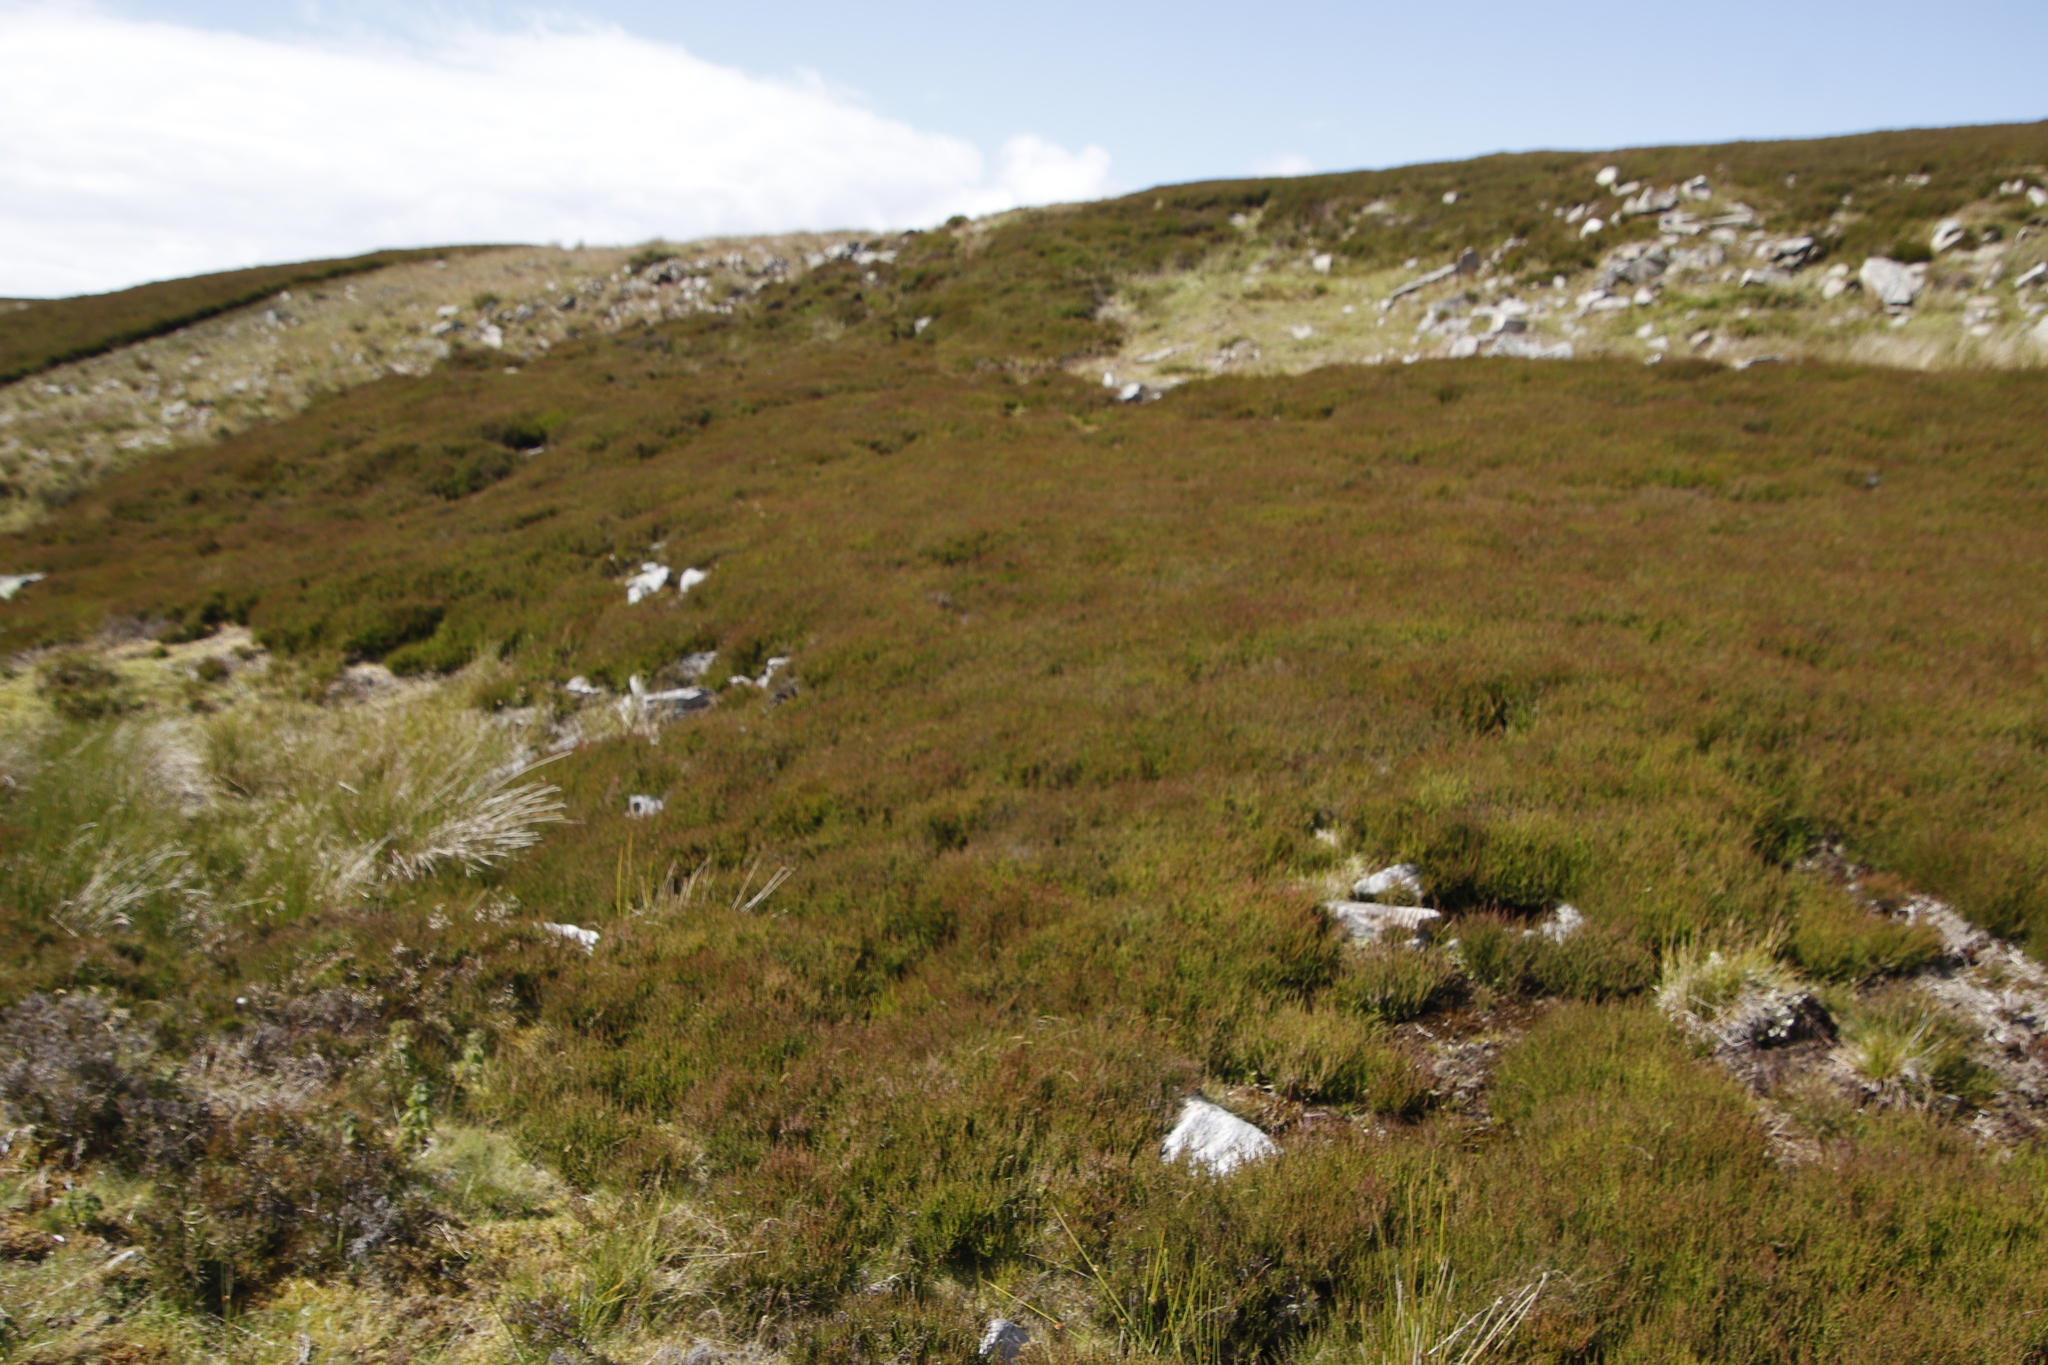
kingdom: Plantae
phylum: Tracheophyta
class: Magnoliopsida
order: Ericales
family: Ericaceae
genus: Calluna
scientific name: Calluna vulgaris
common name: Heather
